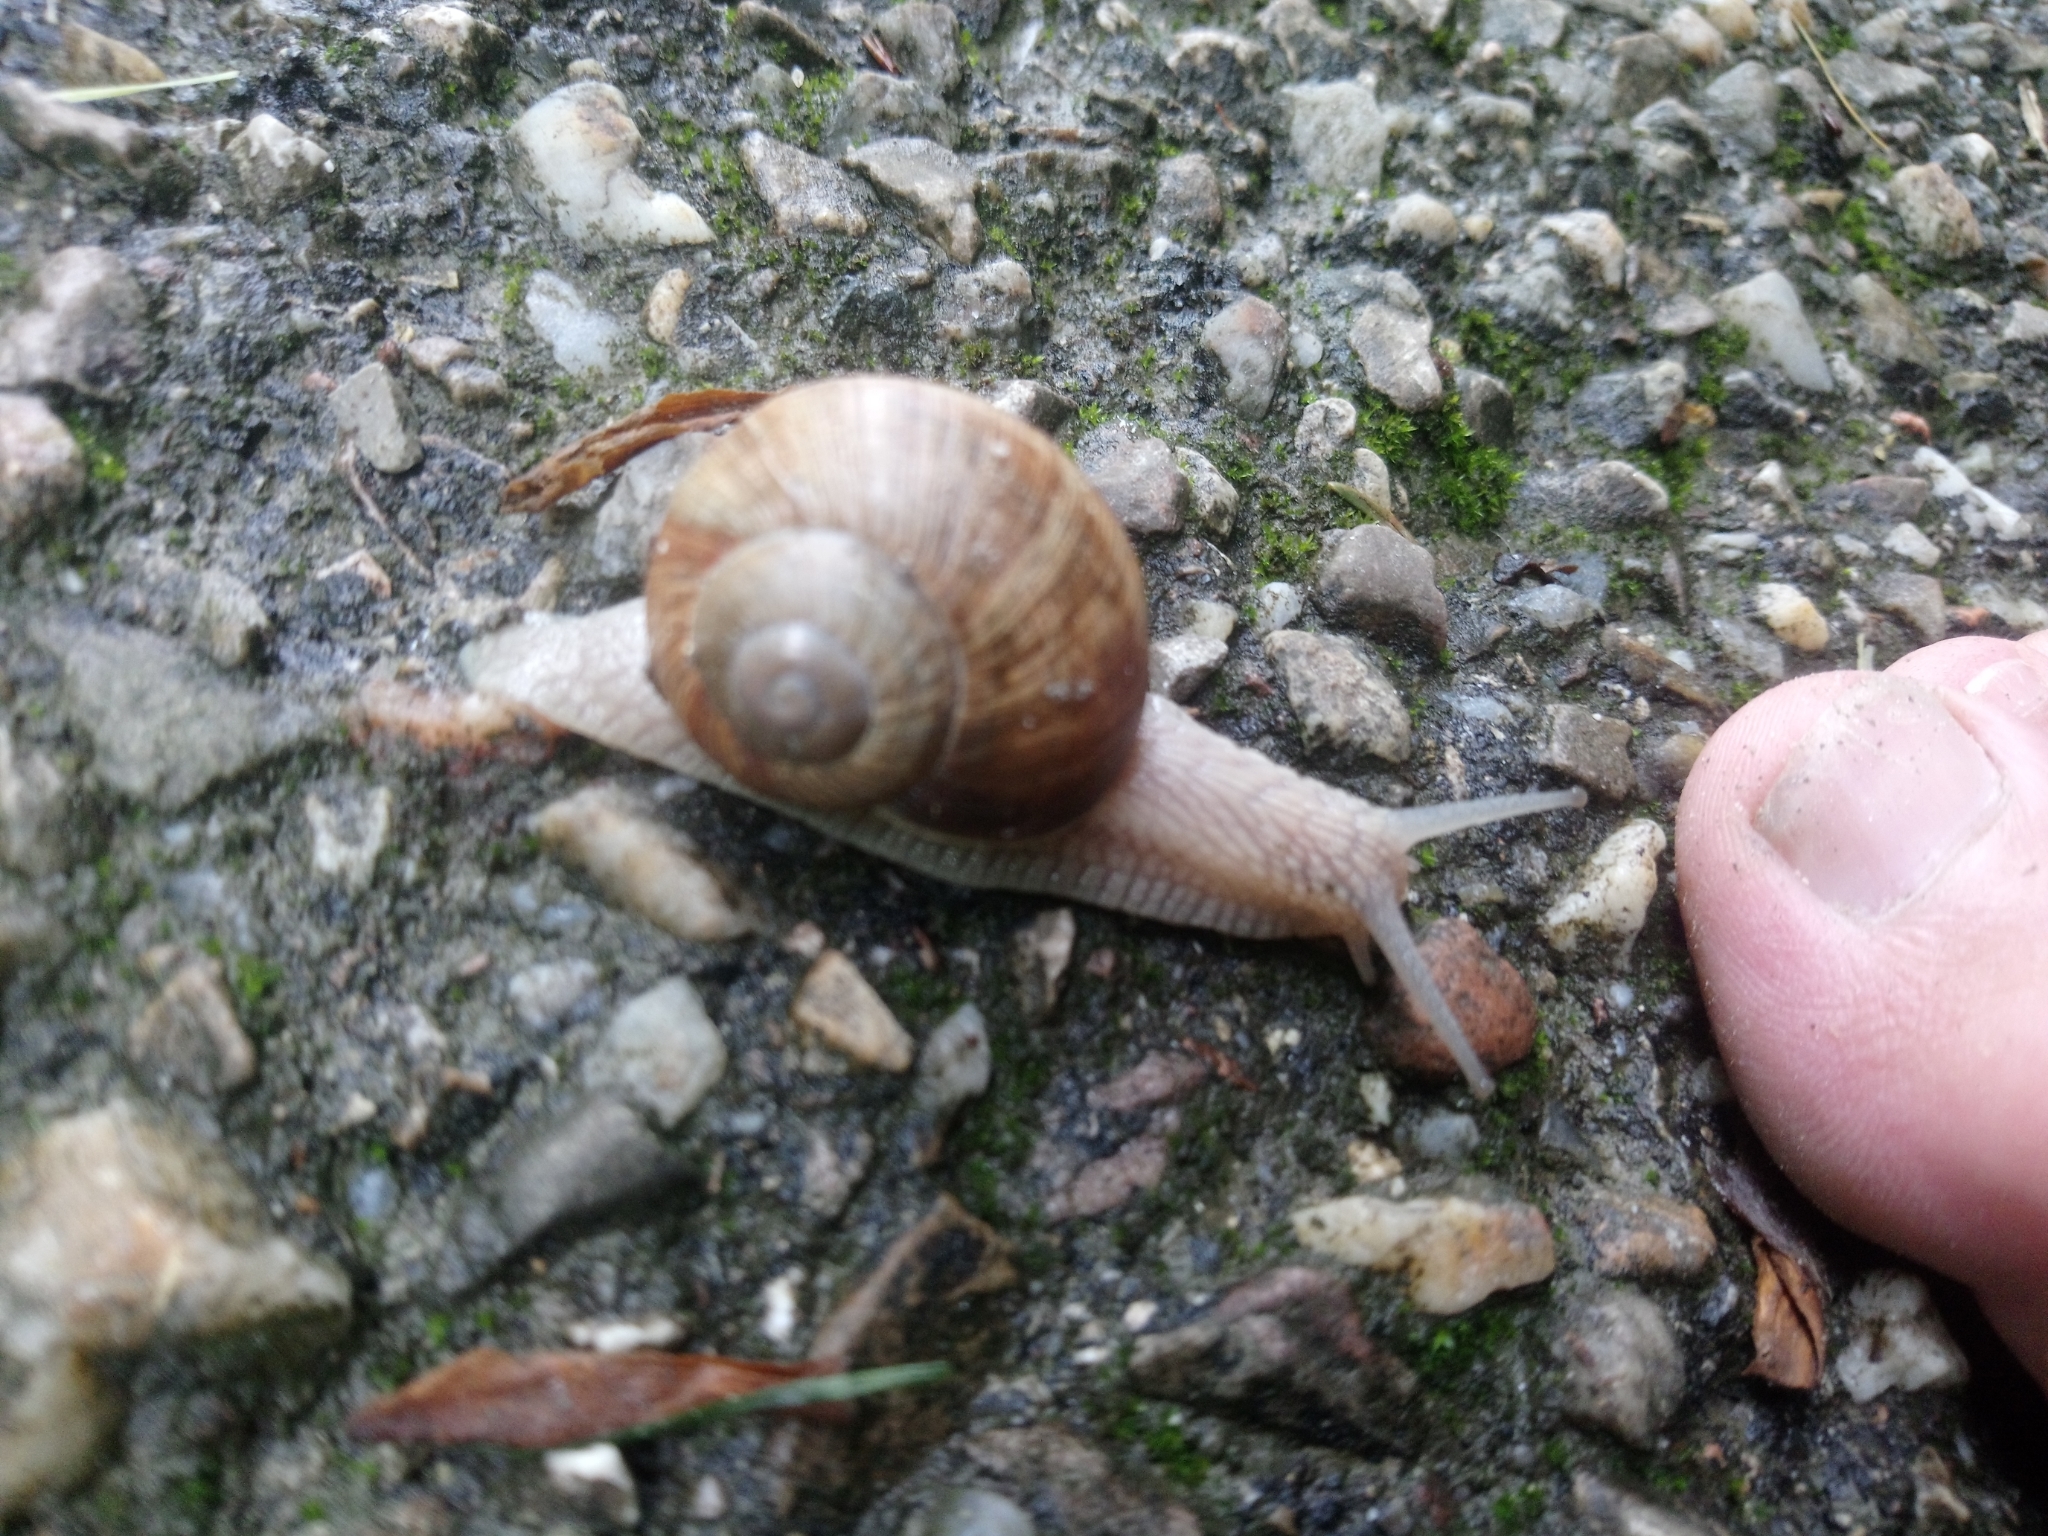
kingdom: Animalia
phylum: Mollusca
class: Gastropoda
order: Stylommatophora
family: Helicidae
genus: Helix
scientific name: Helix pomatia
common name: Roman snail
